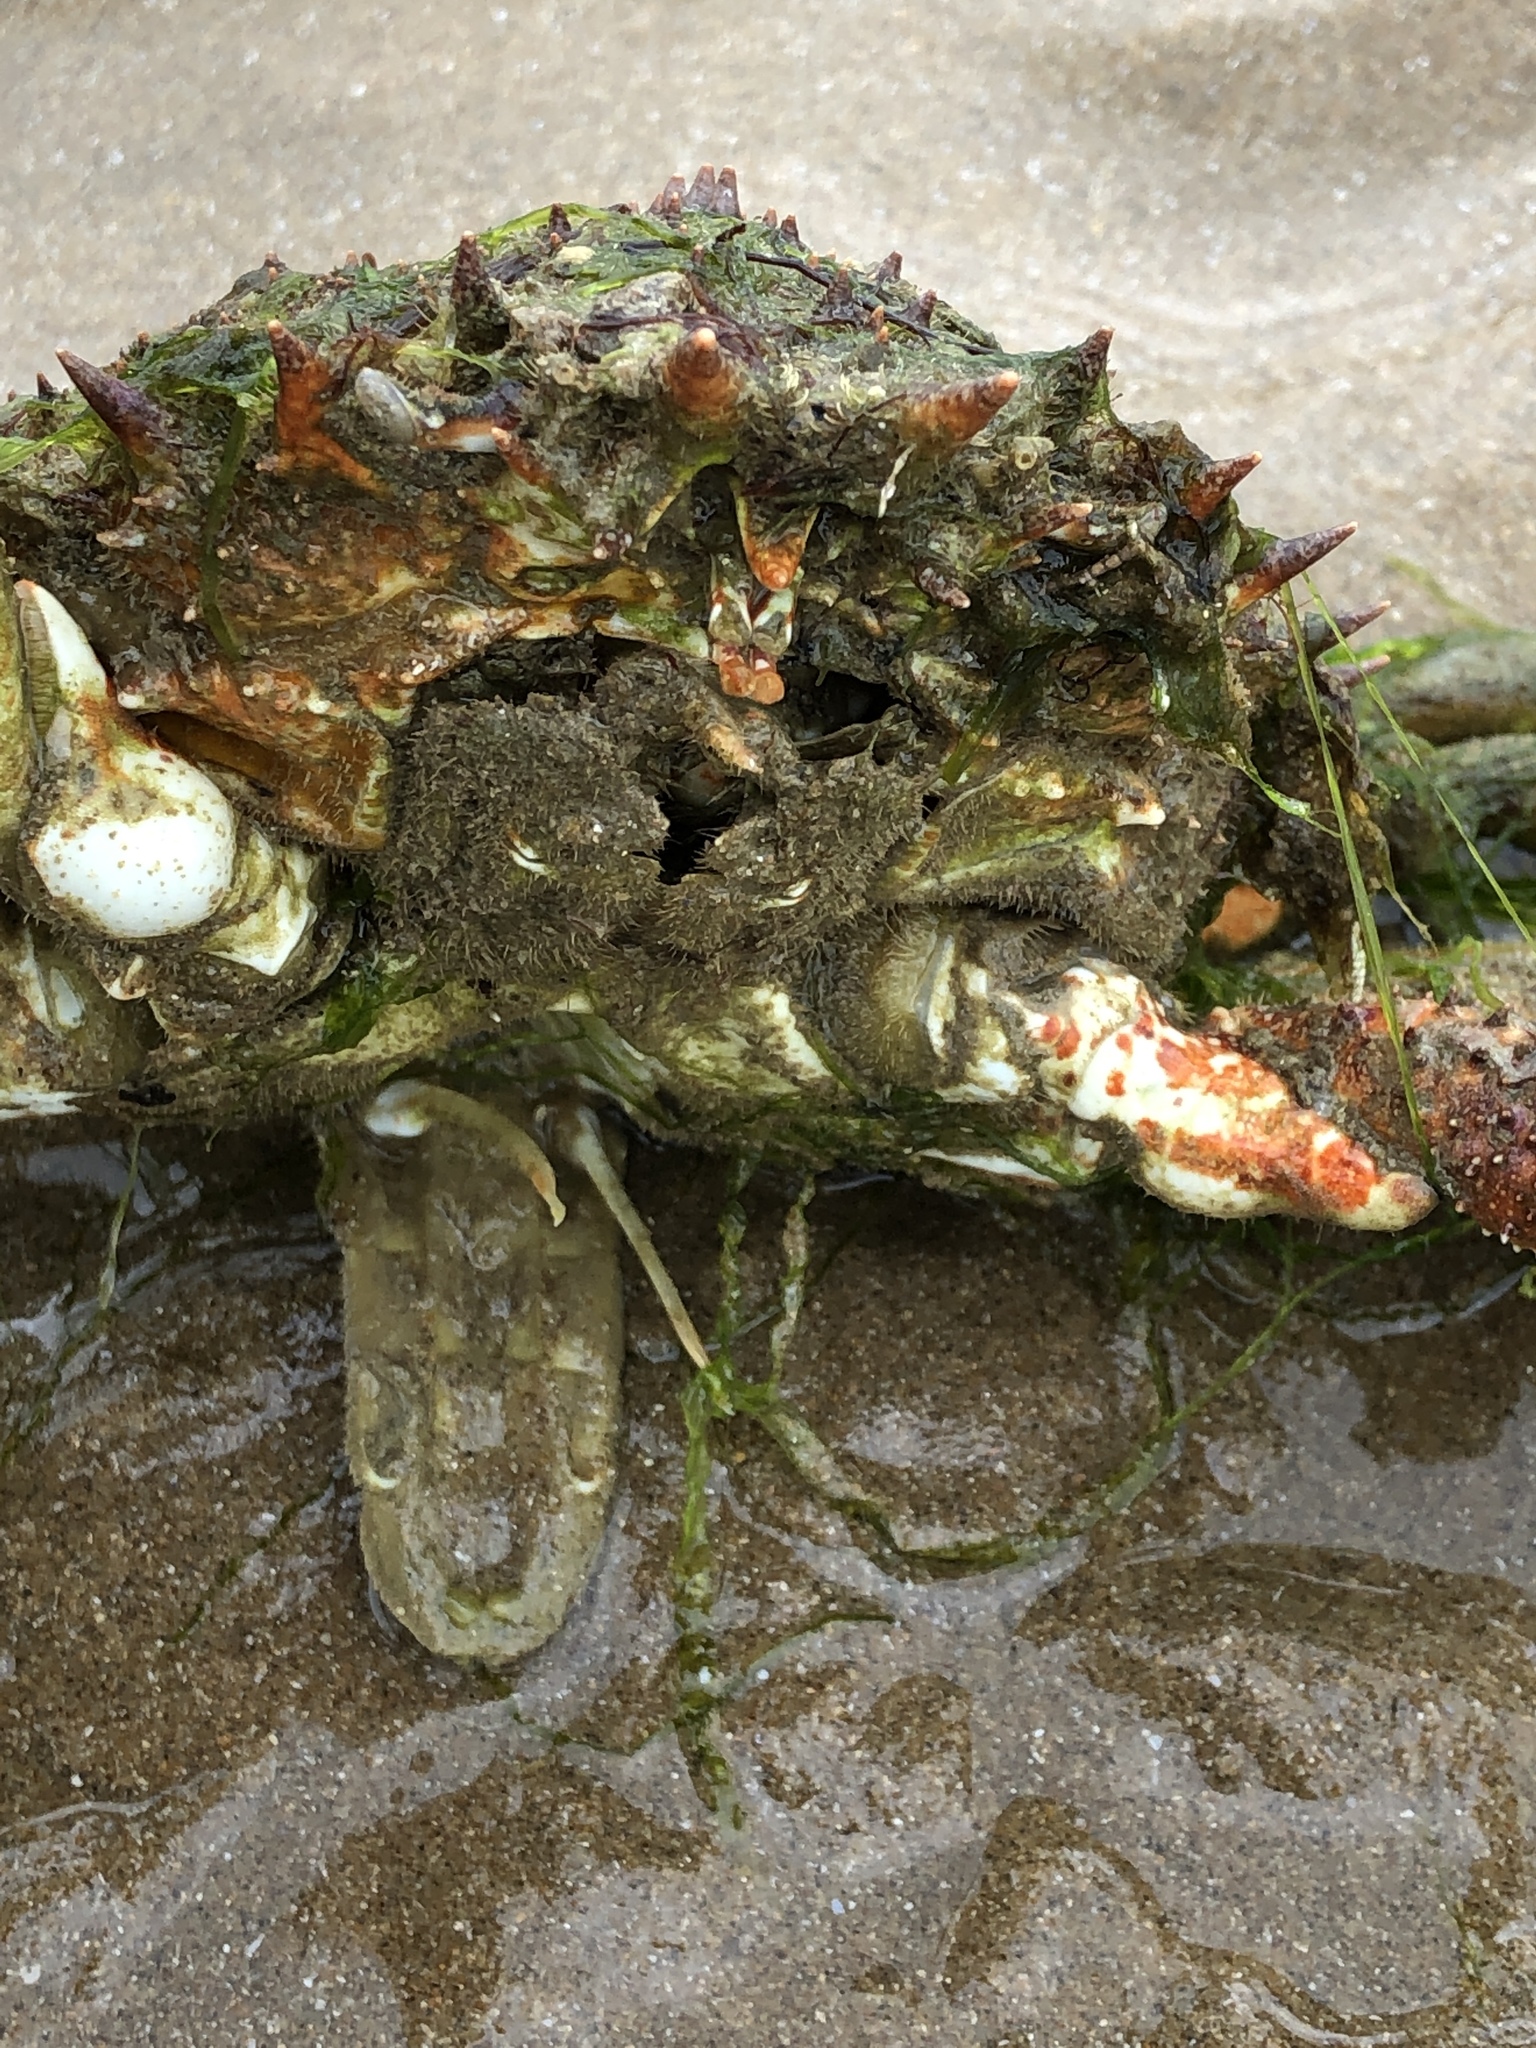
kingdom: Animalia
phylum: Arthropoda
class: Malacostraca
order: Decapoda
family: Majidae
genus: Maja
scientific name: Maja brachydactyla
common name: Common spider crab
